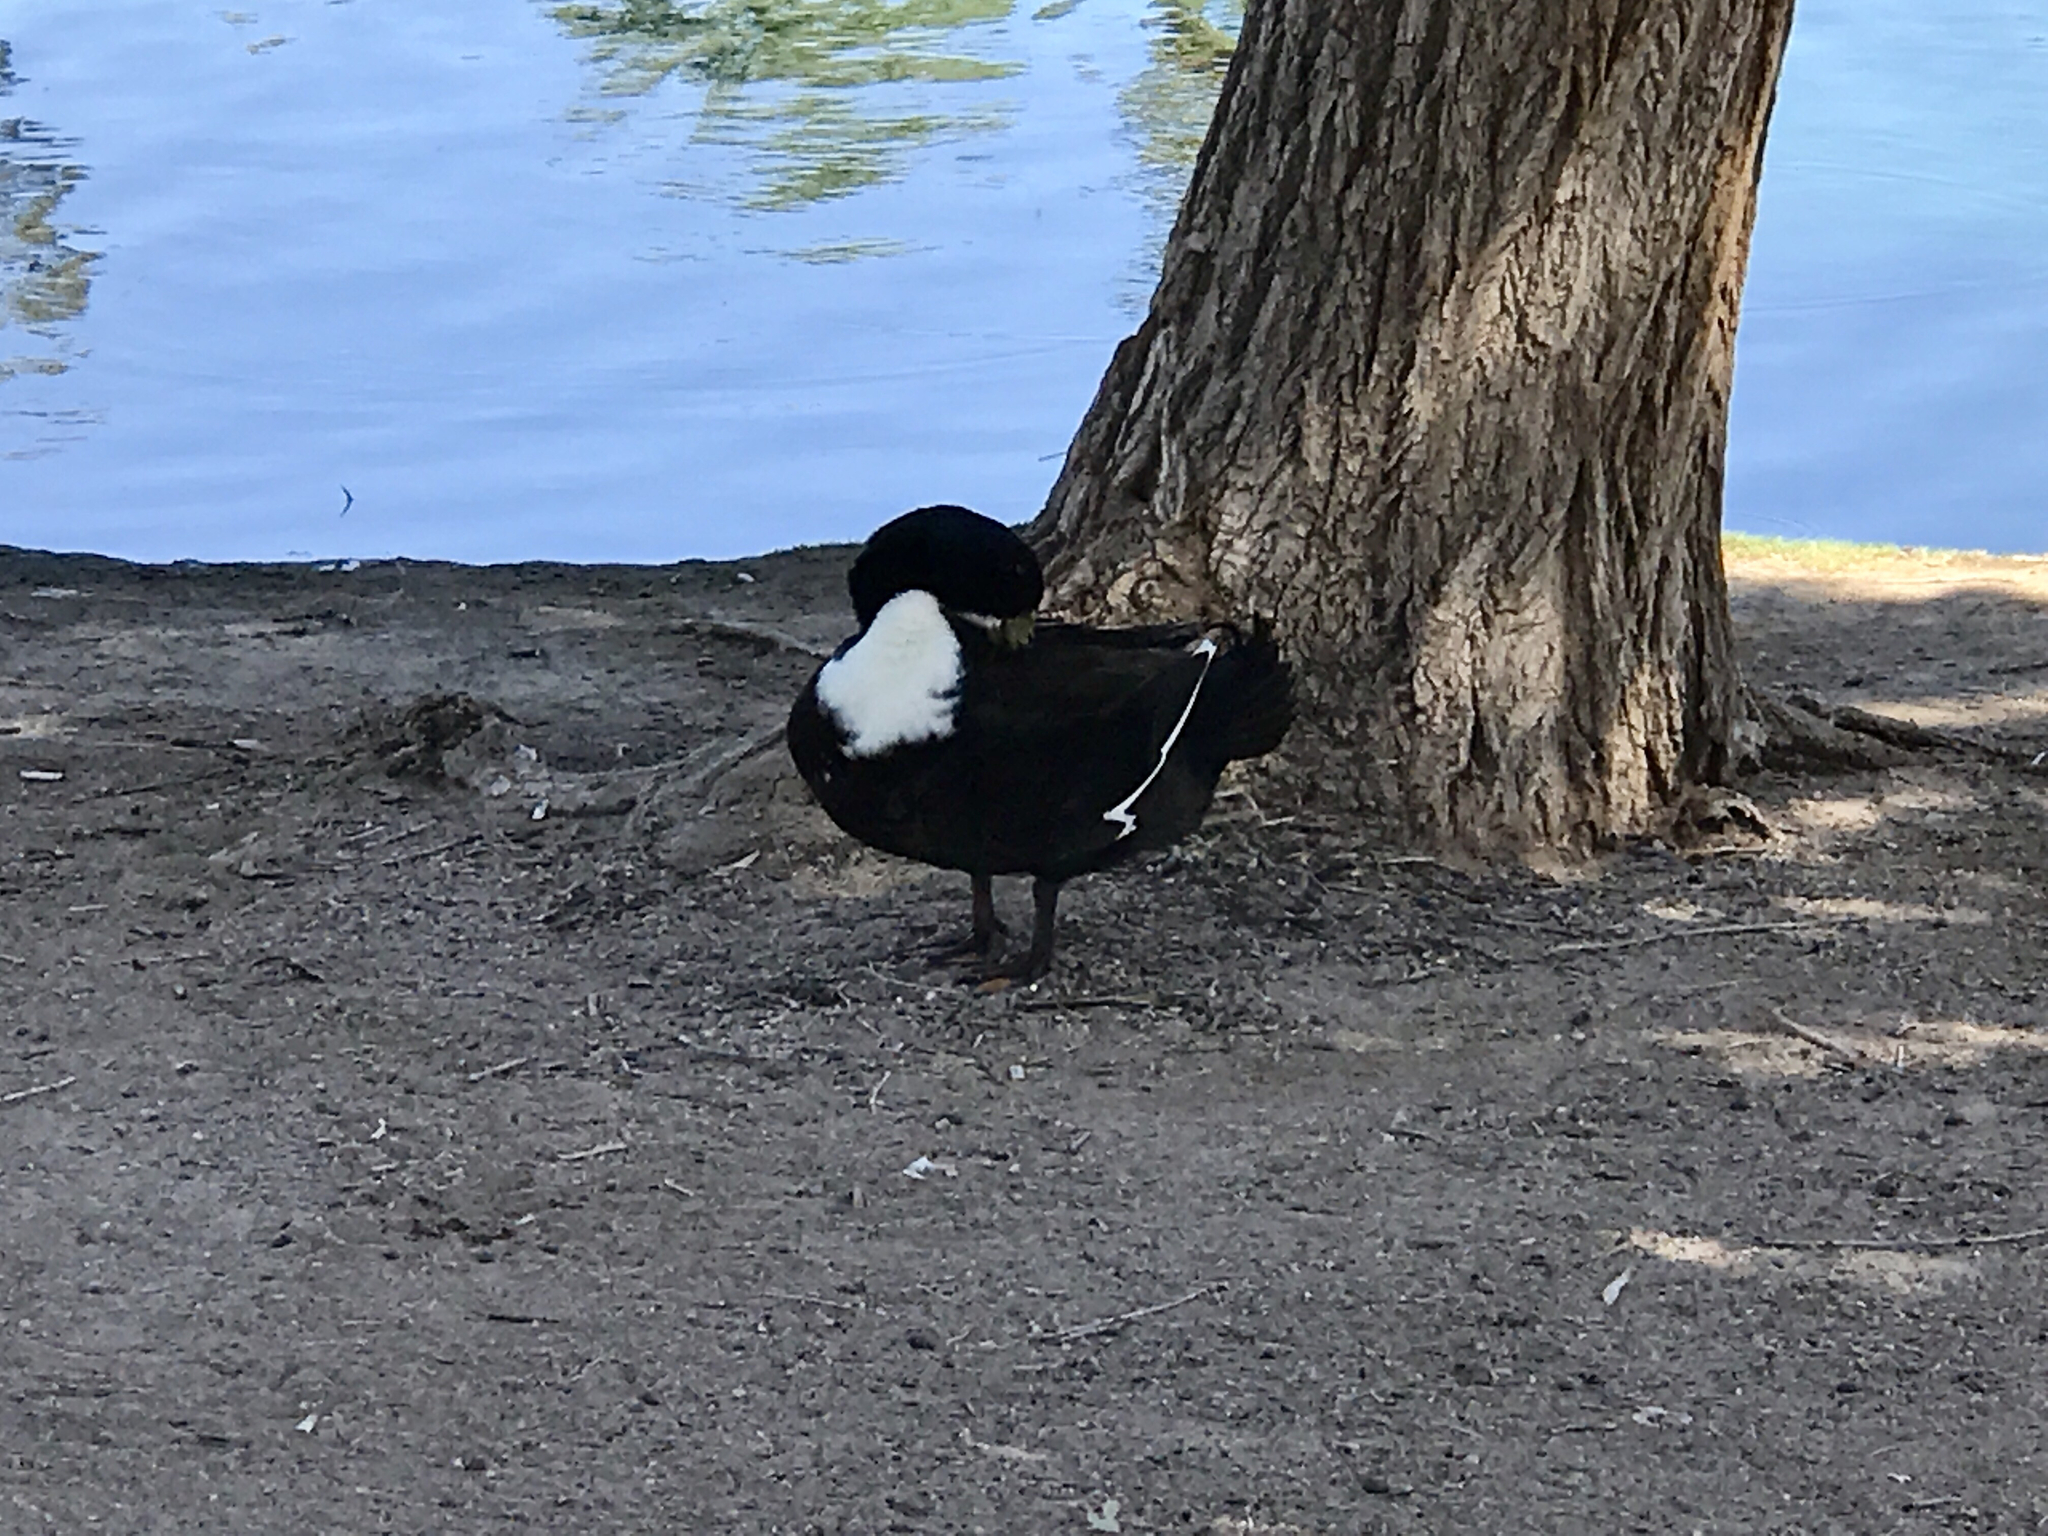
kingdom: Animalia
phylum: Chordata
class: Aves
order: Anseriformes
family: Anatidae
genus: Anas
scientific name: Anas platyrhynchos
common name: Mallard
